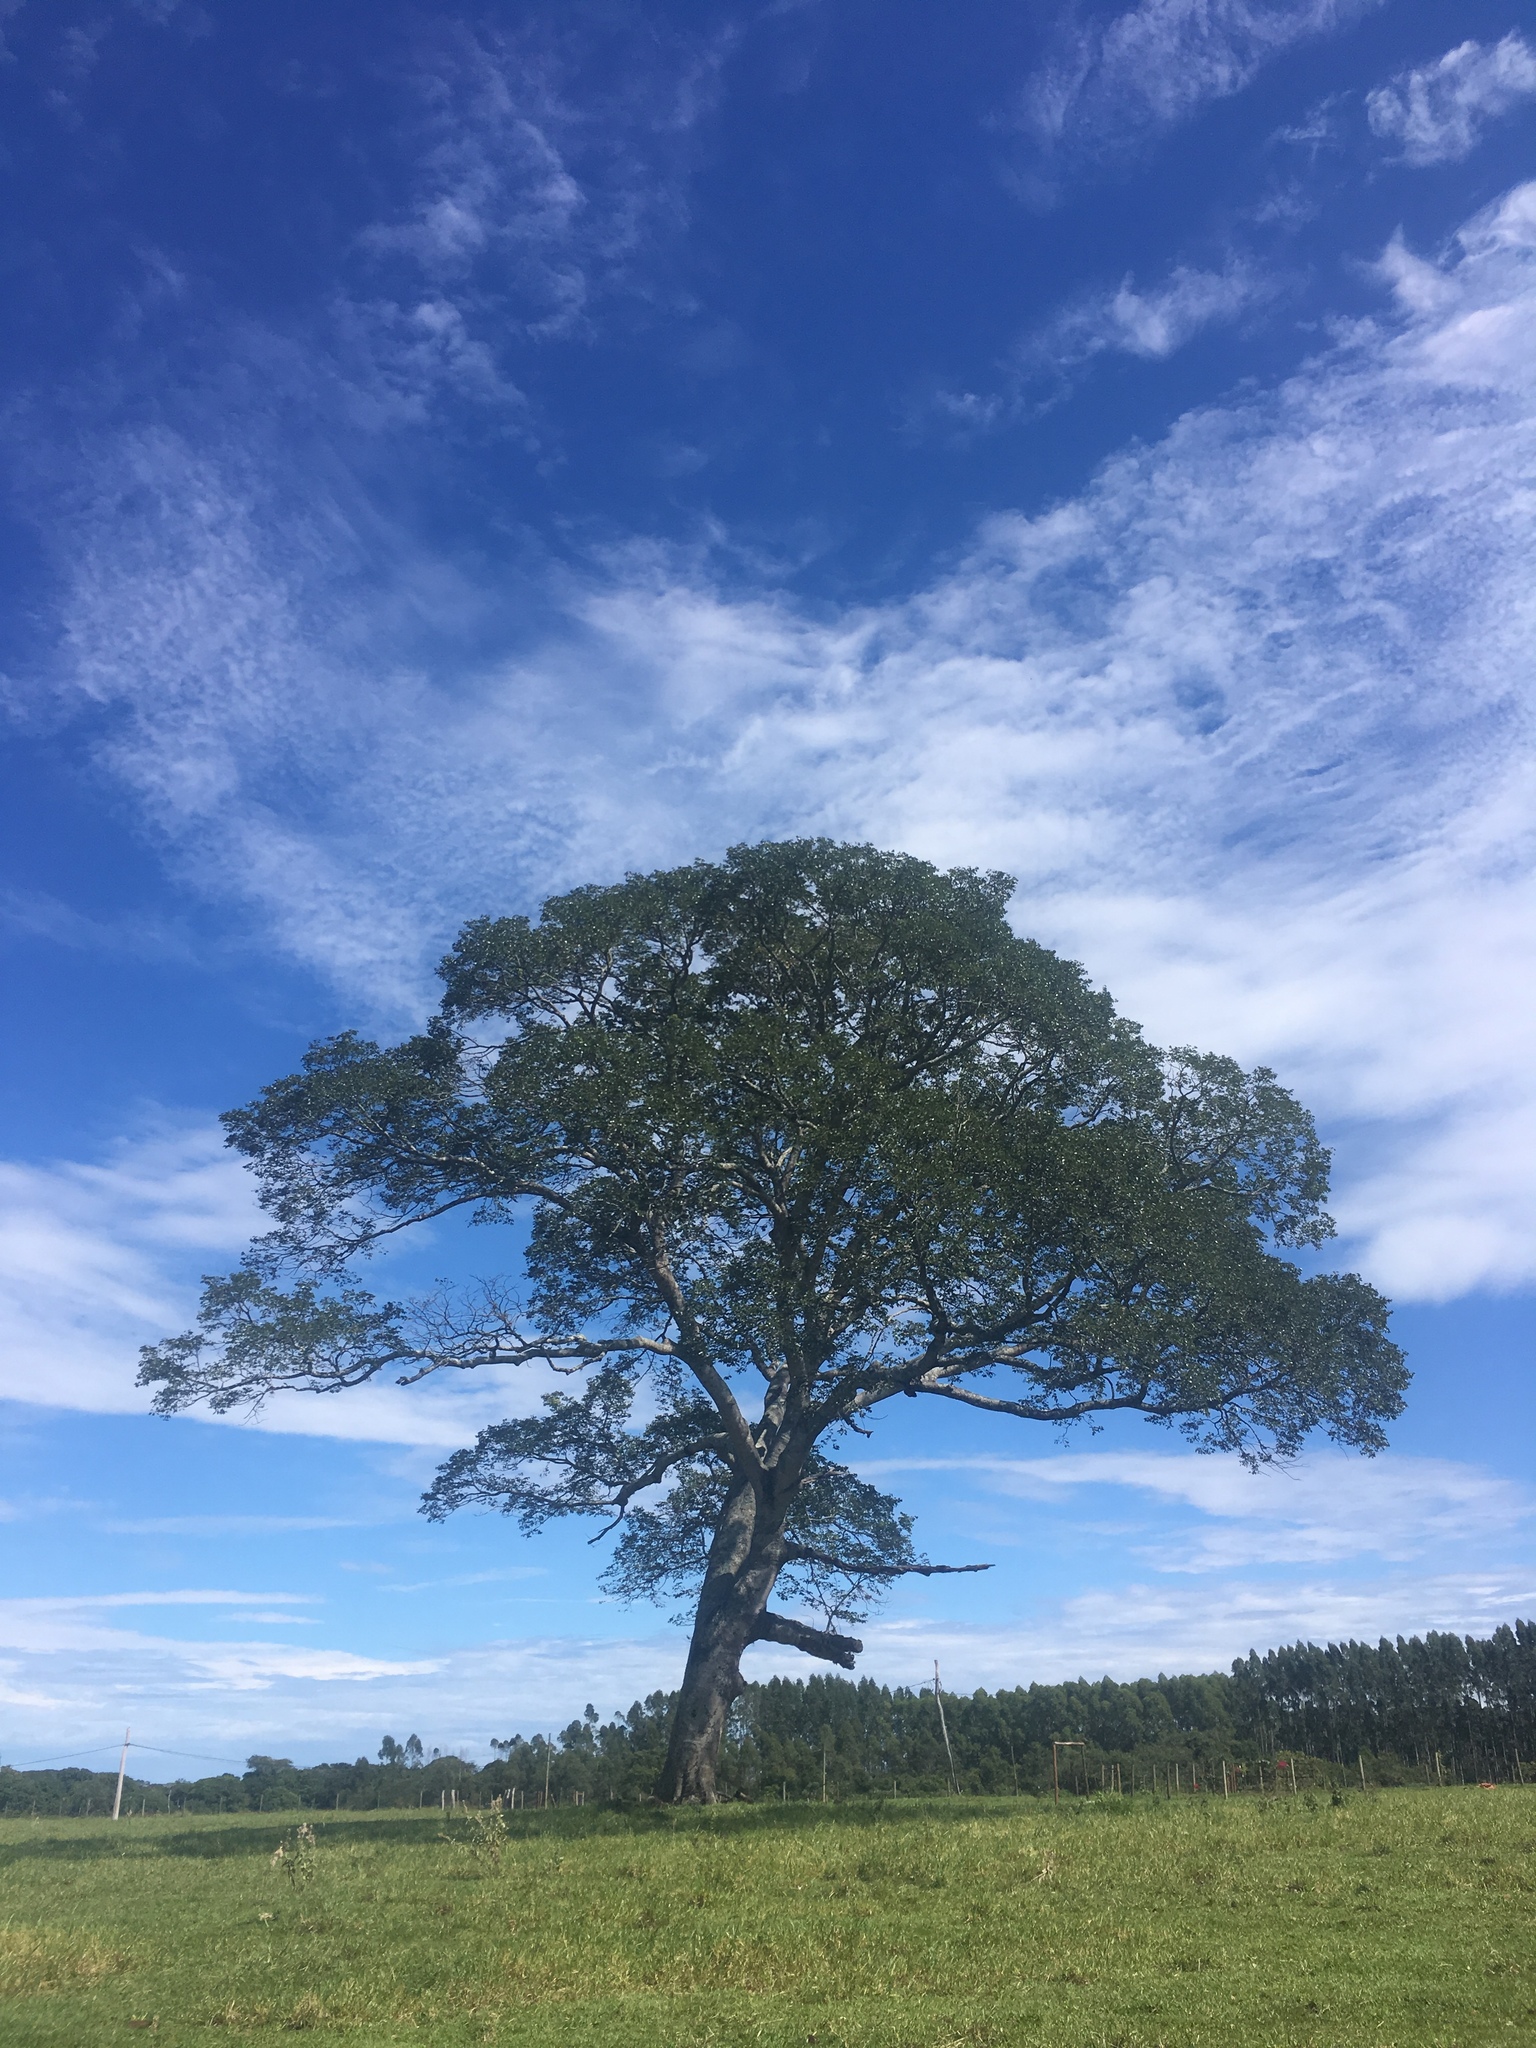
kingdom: Plantae
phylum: Tracheophyta
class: Magnoliopsida
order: Fabales
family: Fabaceae
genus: Hymenaea
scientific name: Hymenaea courbaril
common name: Brazilian copal
